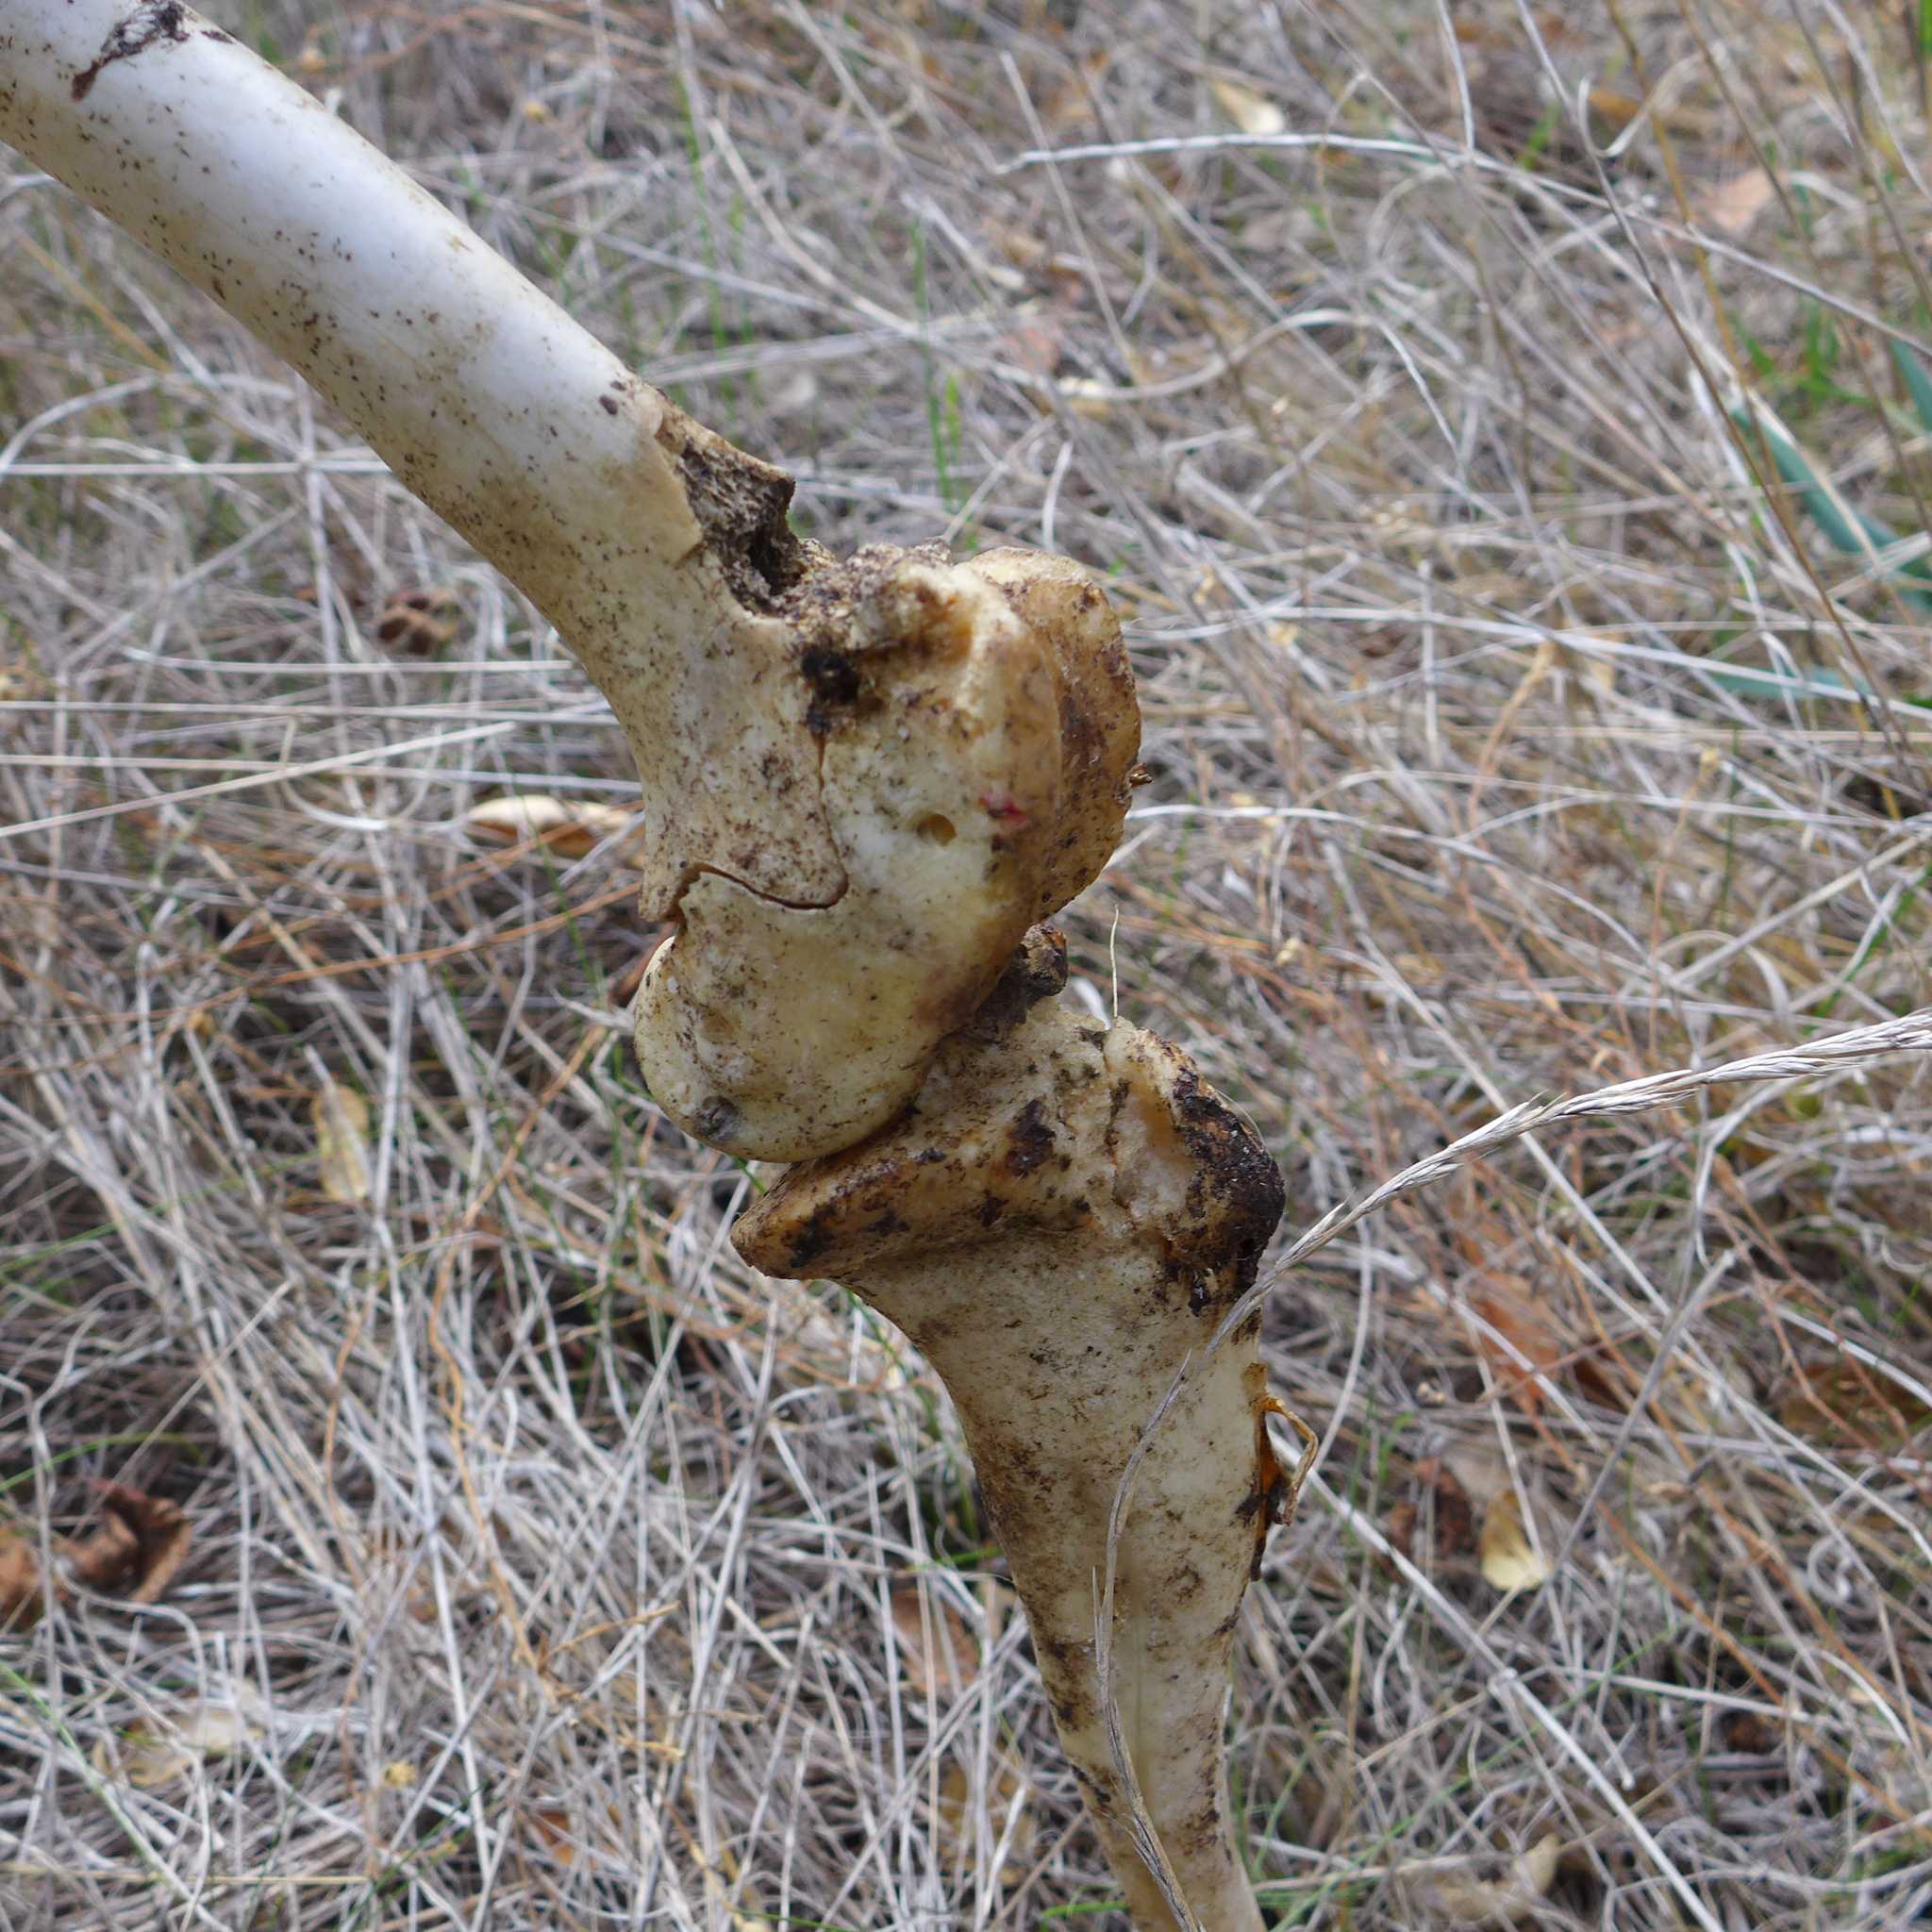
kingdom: Animalia
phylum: Chordata
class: Mammalia
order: Artiodactyla
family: Cervidae
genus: Odocoileus
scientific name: Odocoileus hemionus
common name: Mule deer
